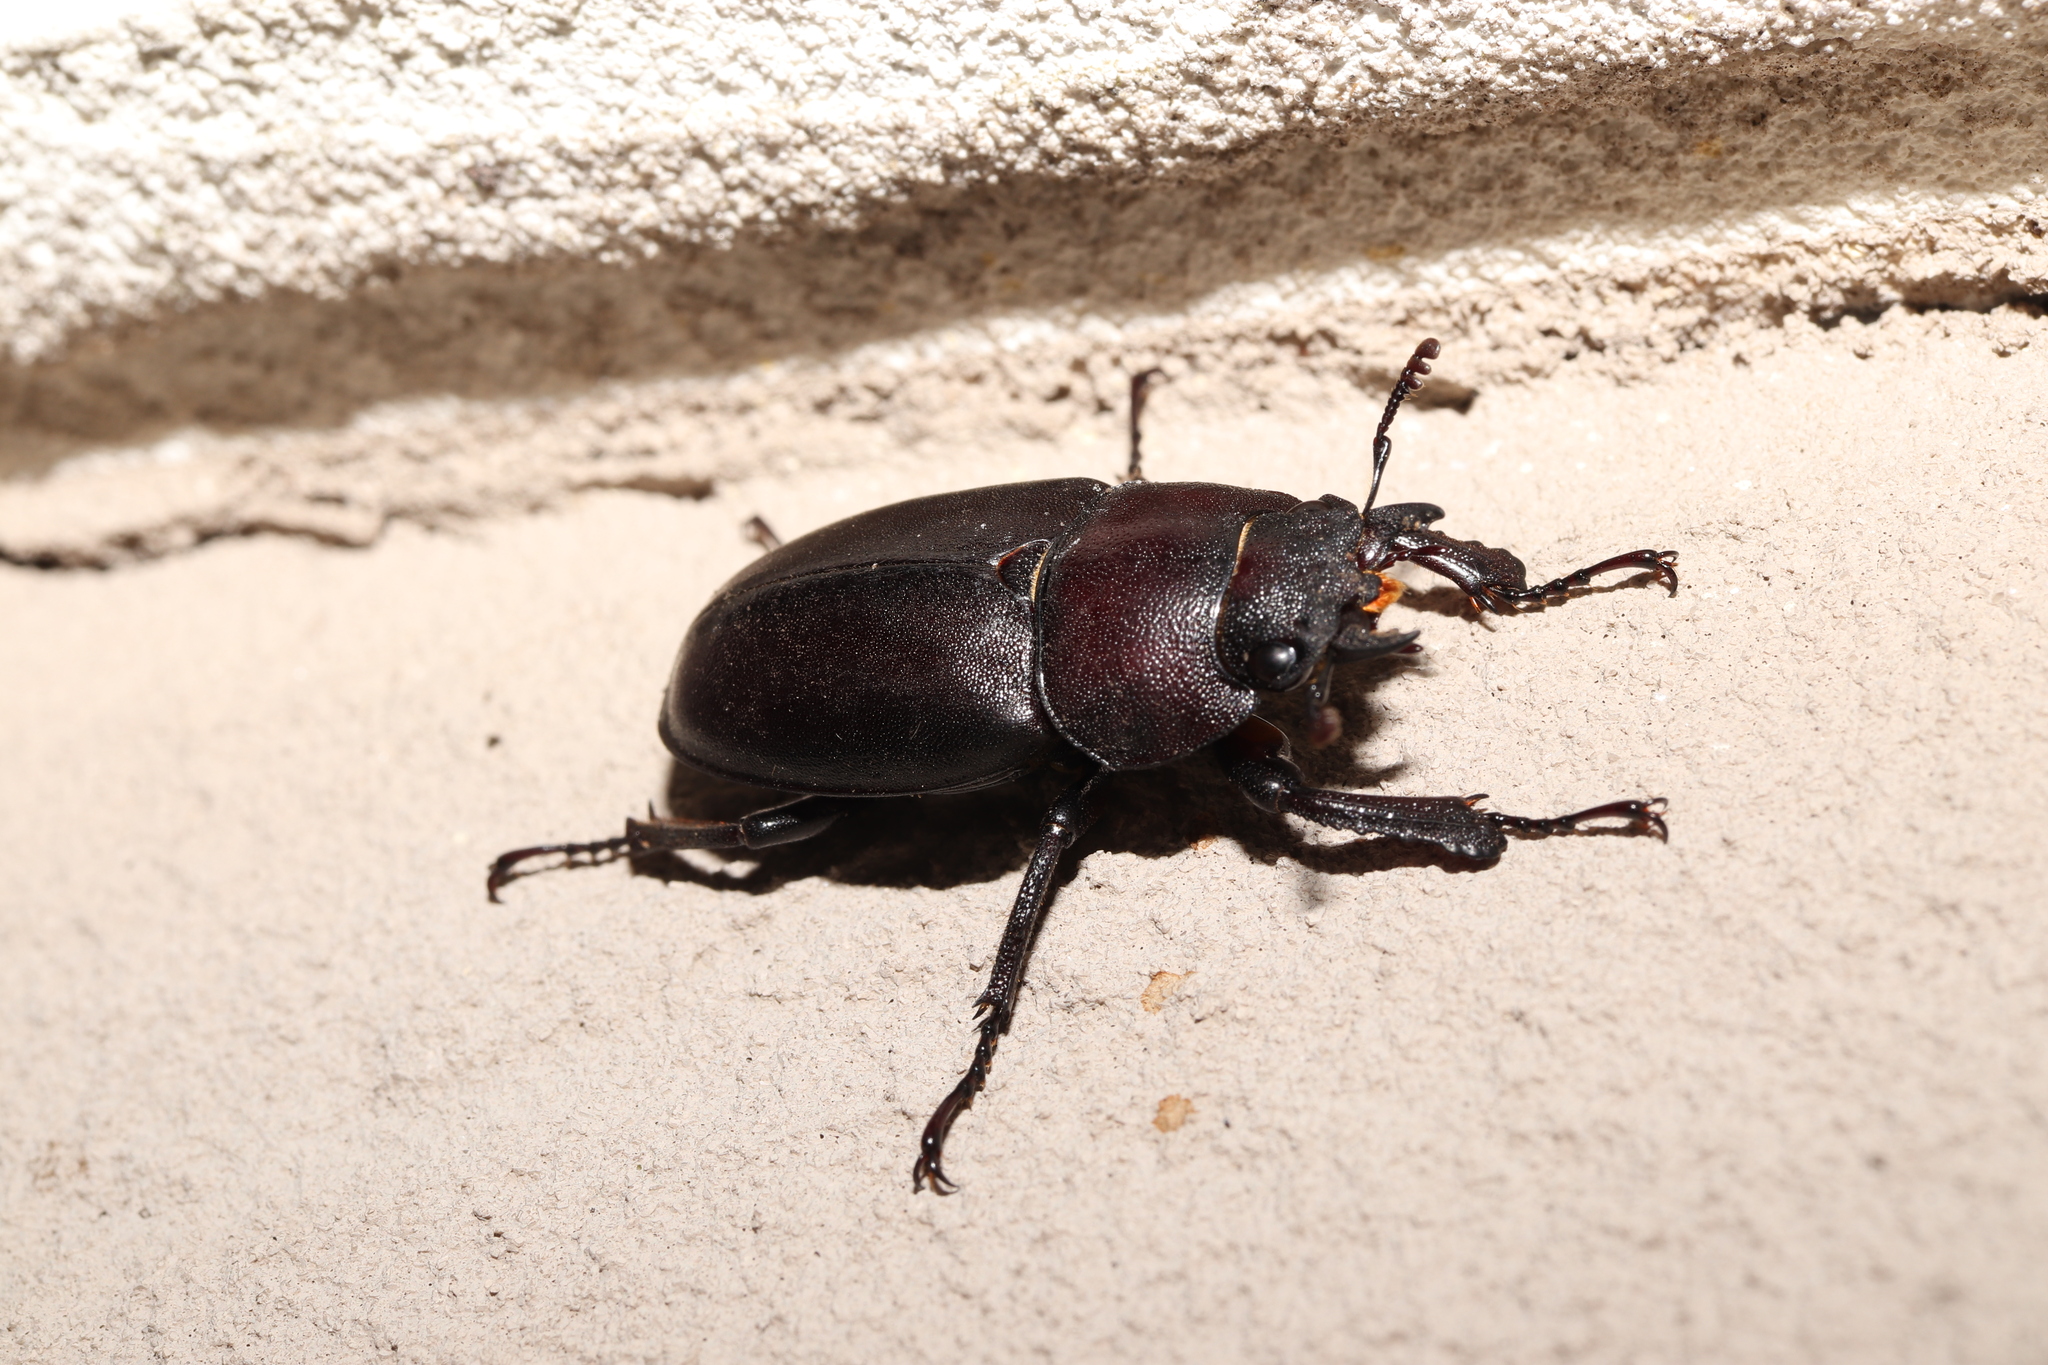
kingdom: Animalia
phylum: Arthropoda
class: Insecta
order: Coleoptera
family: Lucanidae
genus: Prosopocoilus
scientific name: Prosopocoilus inclinatus
